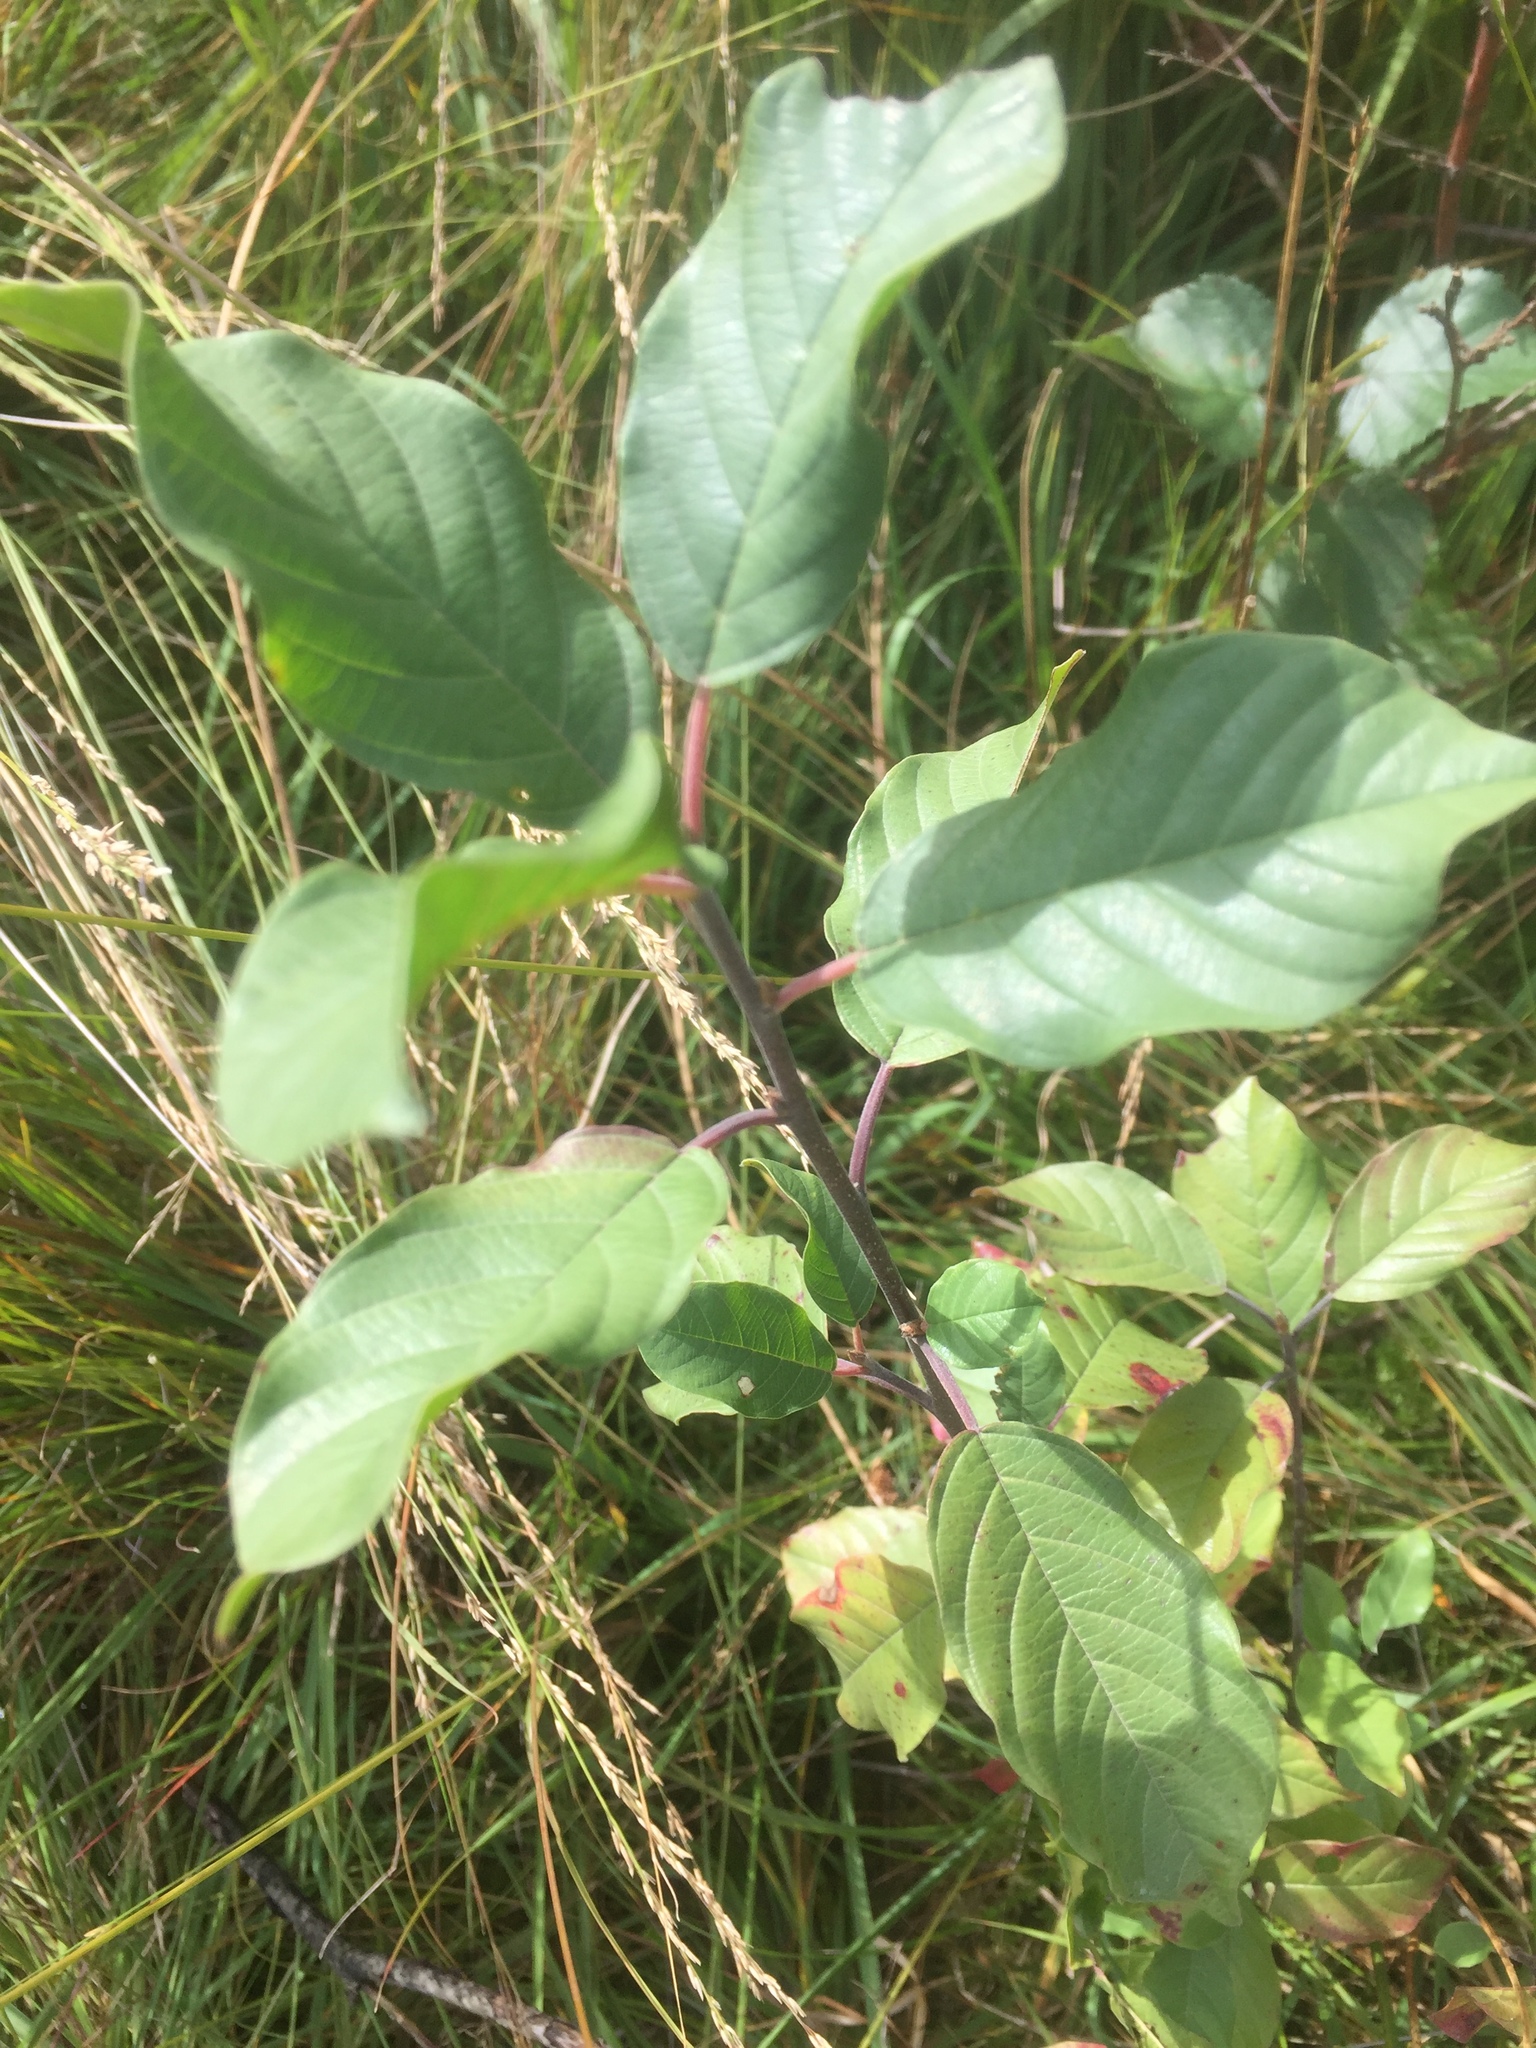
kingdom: Plantae
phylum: Tracheophyta
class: Magnoliopsida
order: Rosales
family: Rhamnaceae
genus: Frangula
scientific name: Frangula alnus
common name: Alder buckthorn
